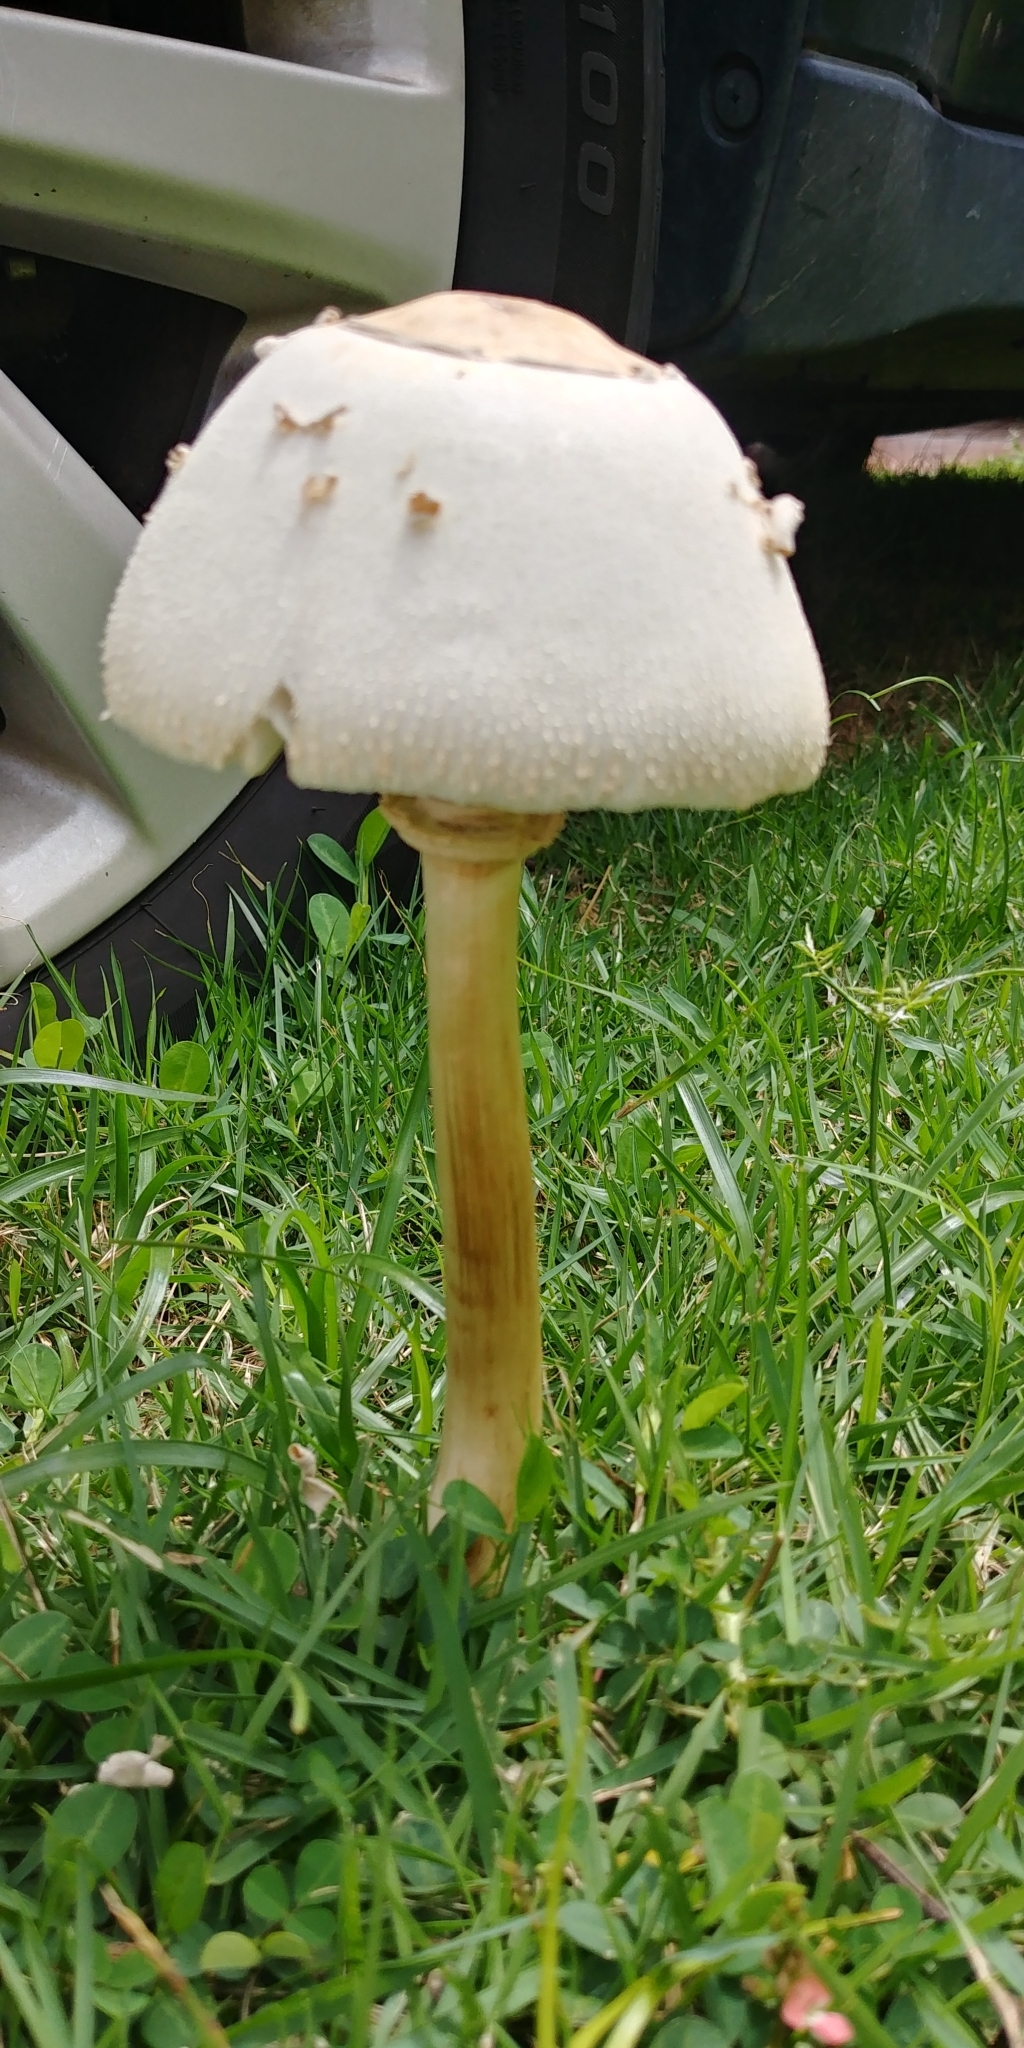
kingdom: Fungi
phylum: Basidiomycota
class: Agaricomycetes
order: Agaricales
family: Agaricaceae
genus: Chlorophyllum
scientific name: Chlorophyllum molybdites
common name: False parasol
